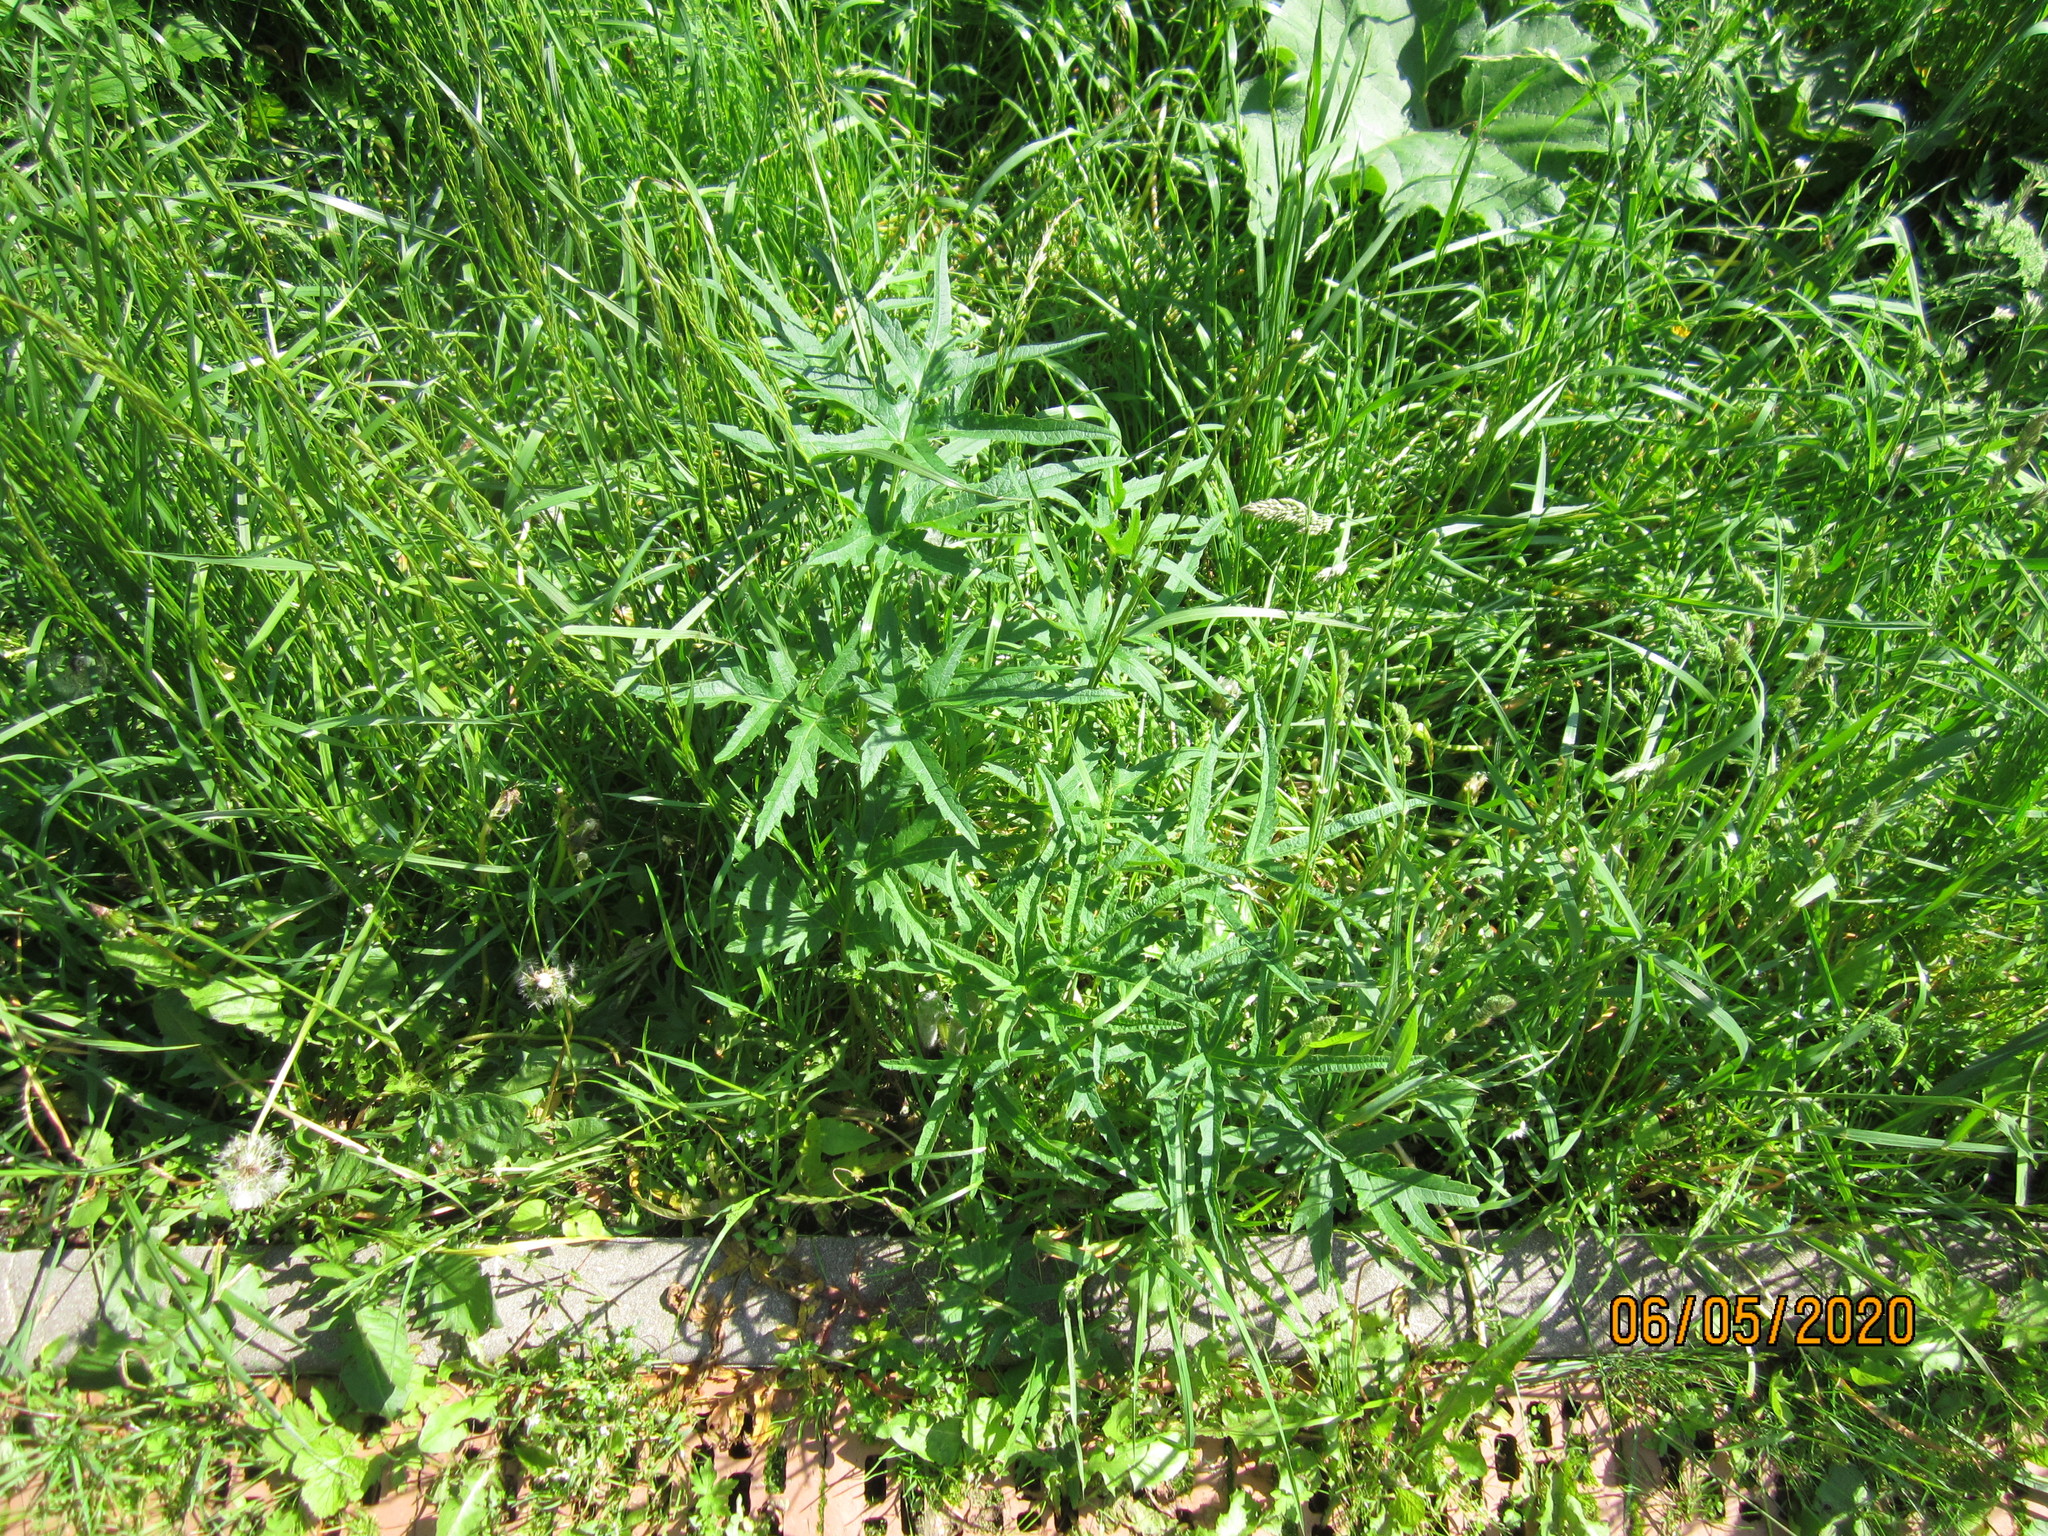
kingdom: Plantae
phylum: Tracheophyta
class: Magnoliopsida
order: Apiales
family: Apiaceae
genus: Heracleum
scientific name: Heracleum sphondylium
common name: Hogweed
